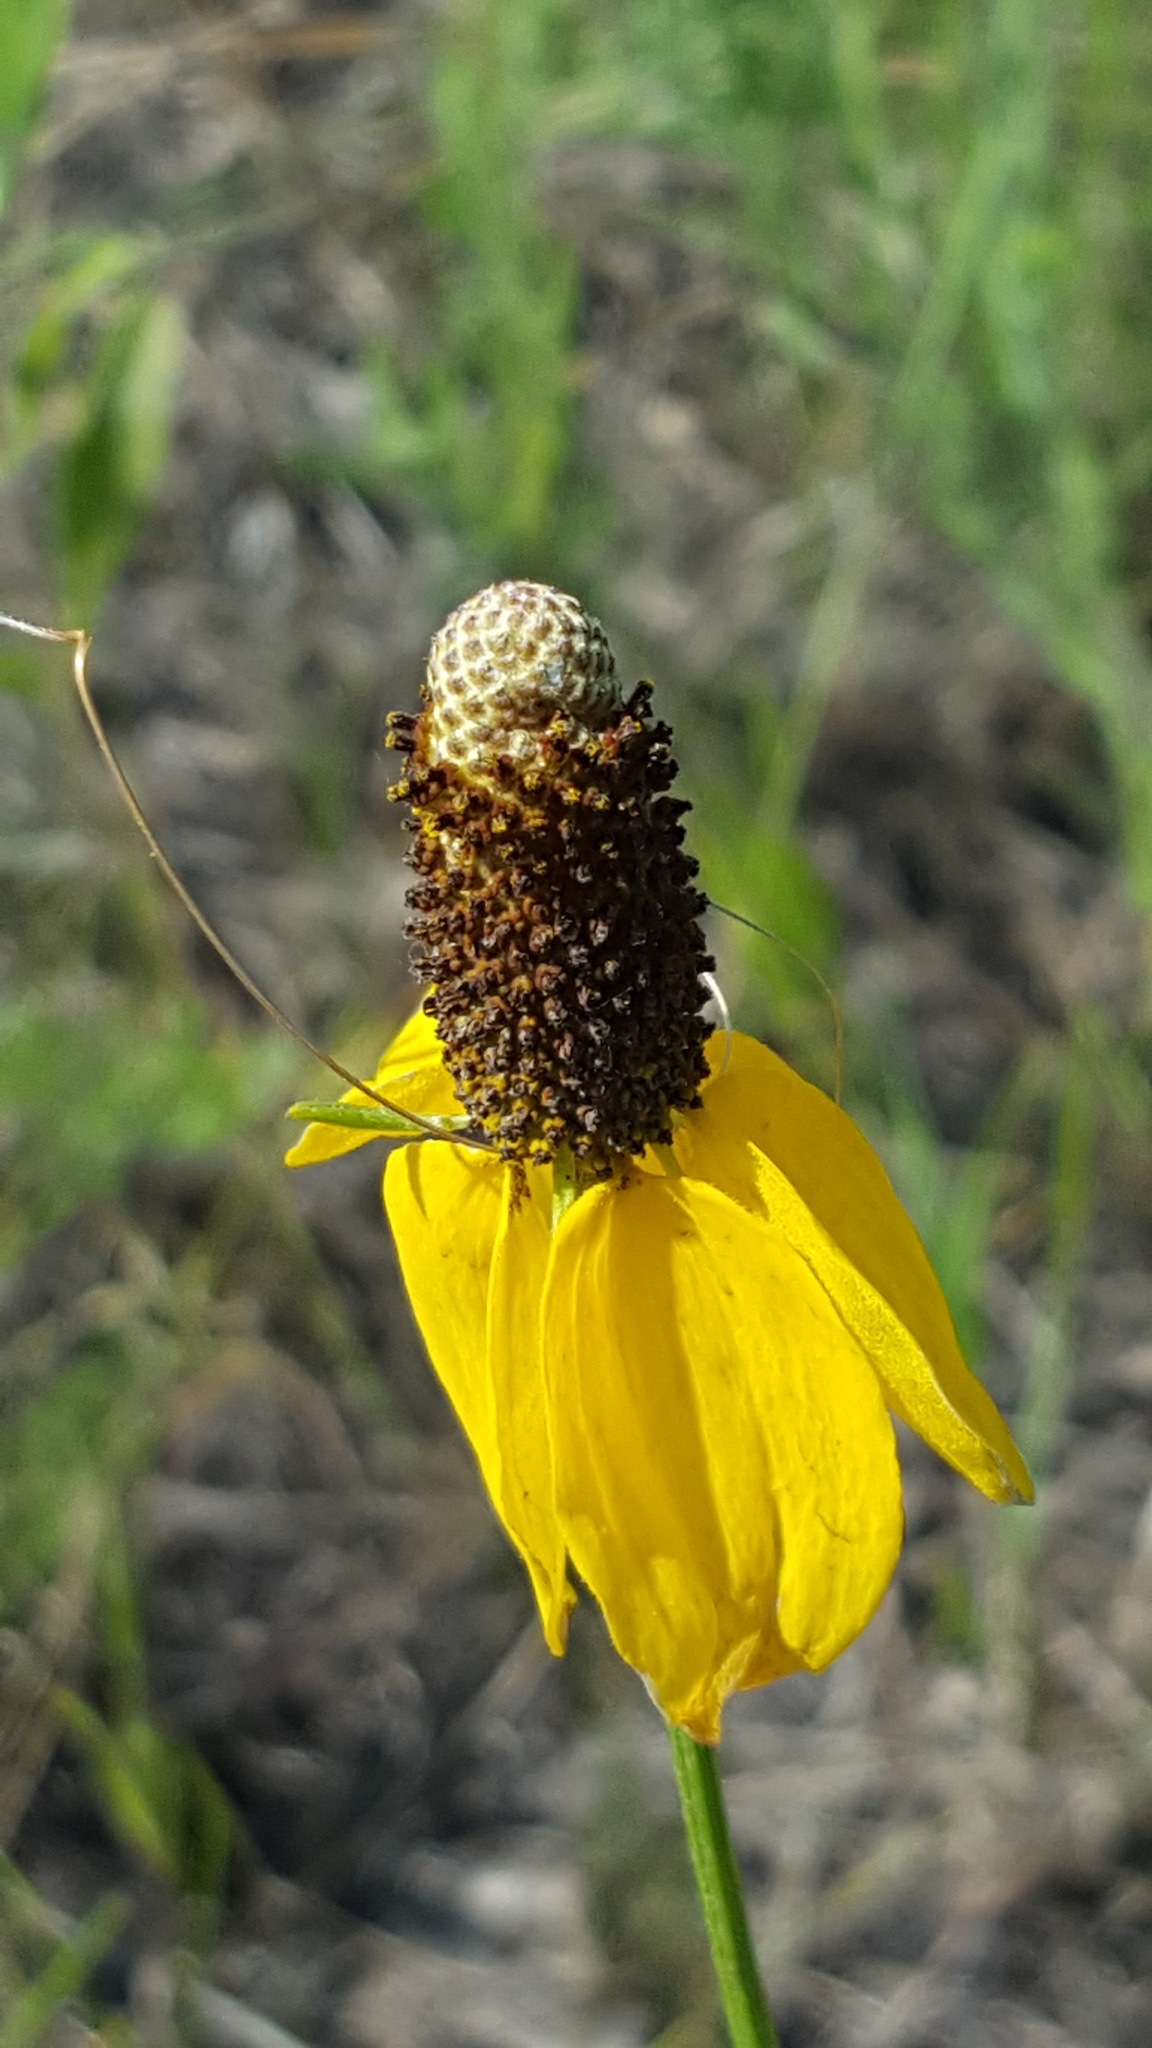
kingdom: Plantae
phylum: Tracheophyta
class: Magnoliopsida
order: Asterales
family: Asteraceae
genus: Ratibida
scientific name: Ratibida columnifera
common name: Prairie coneflower
